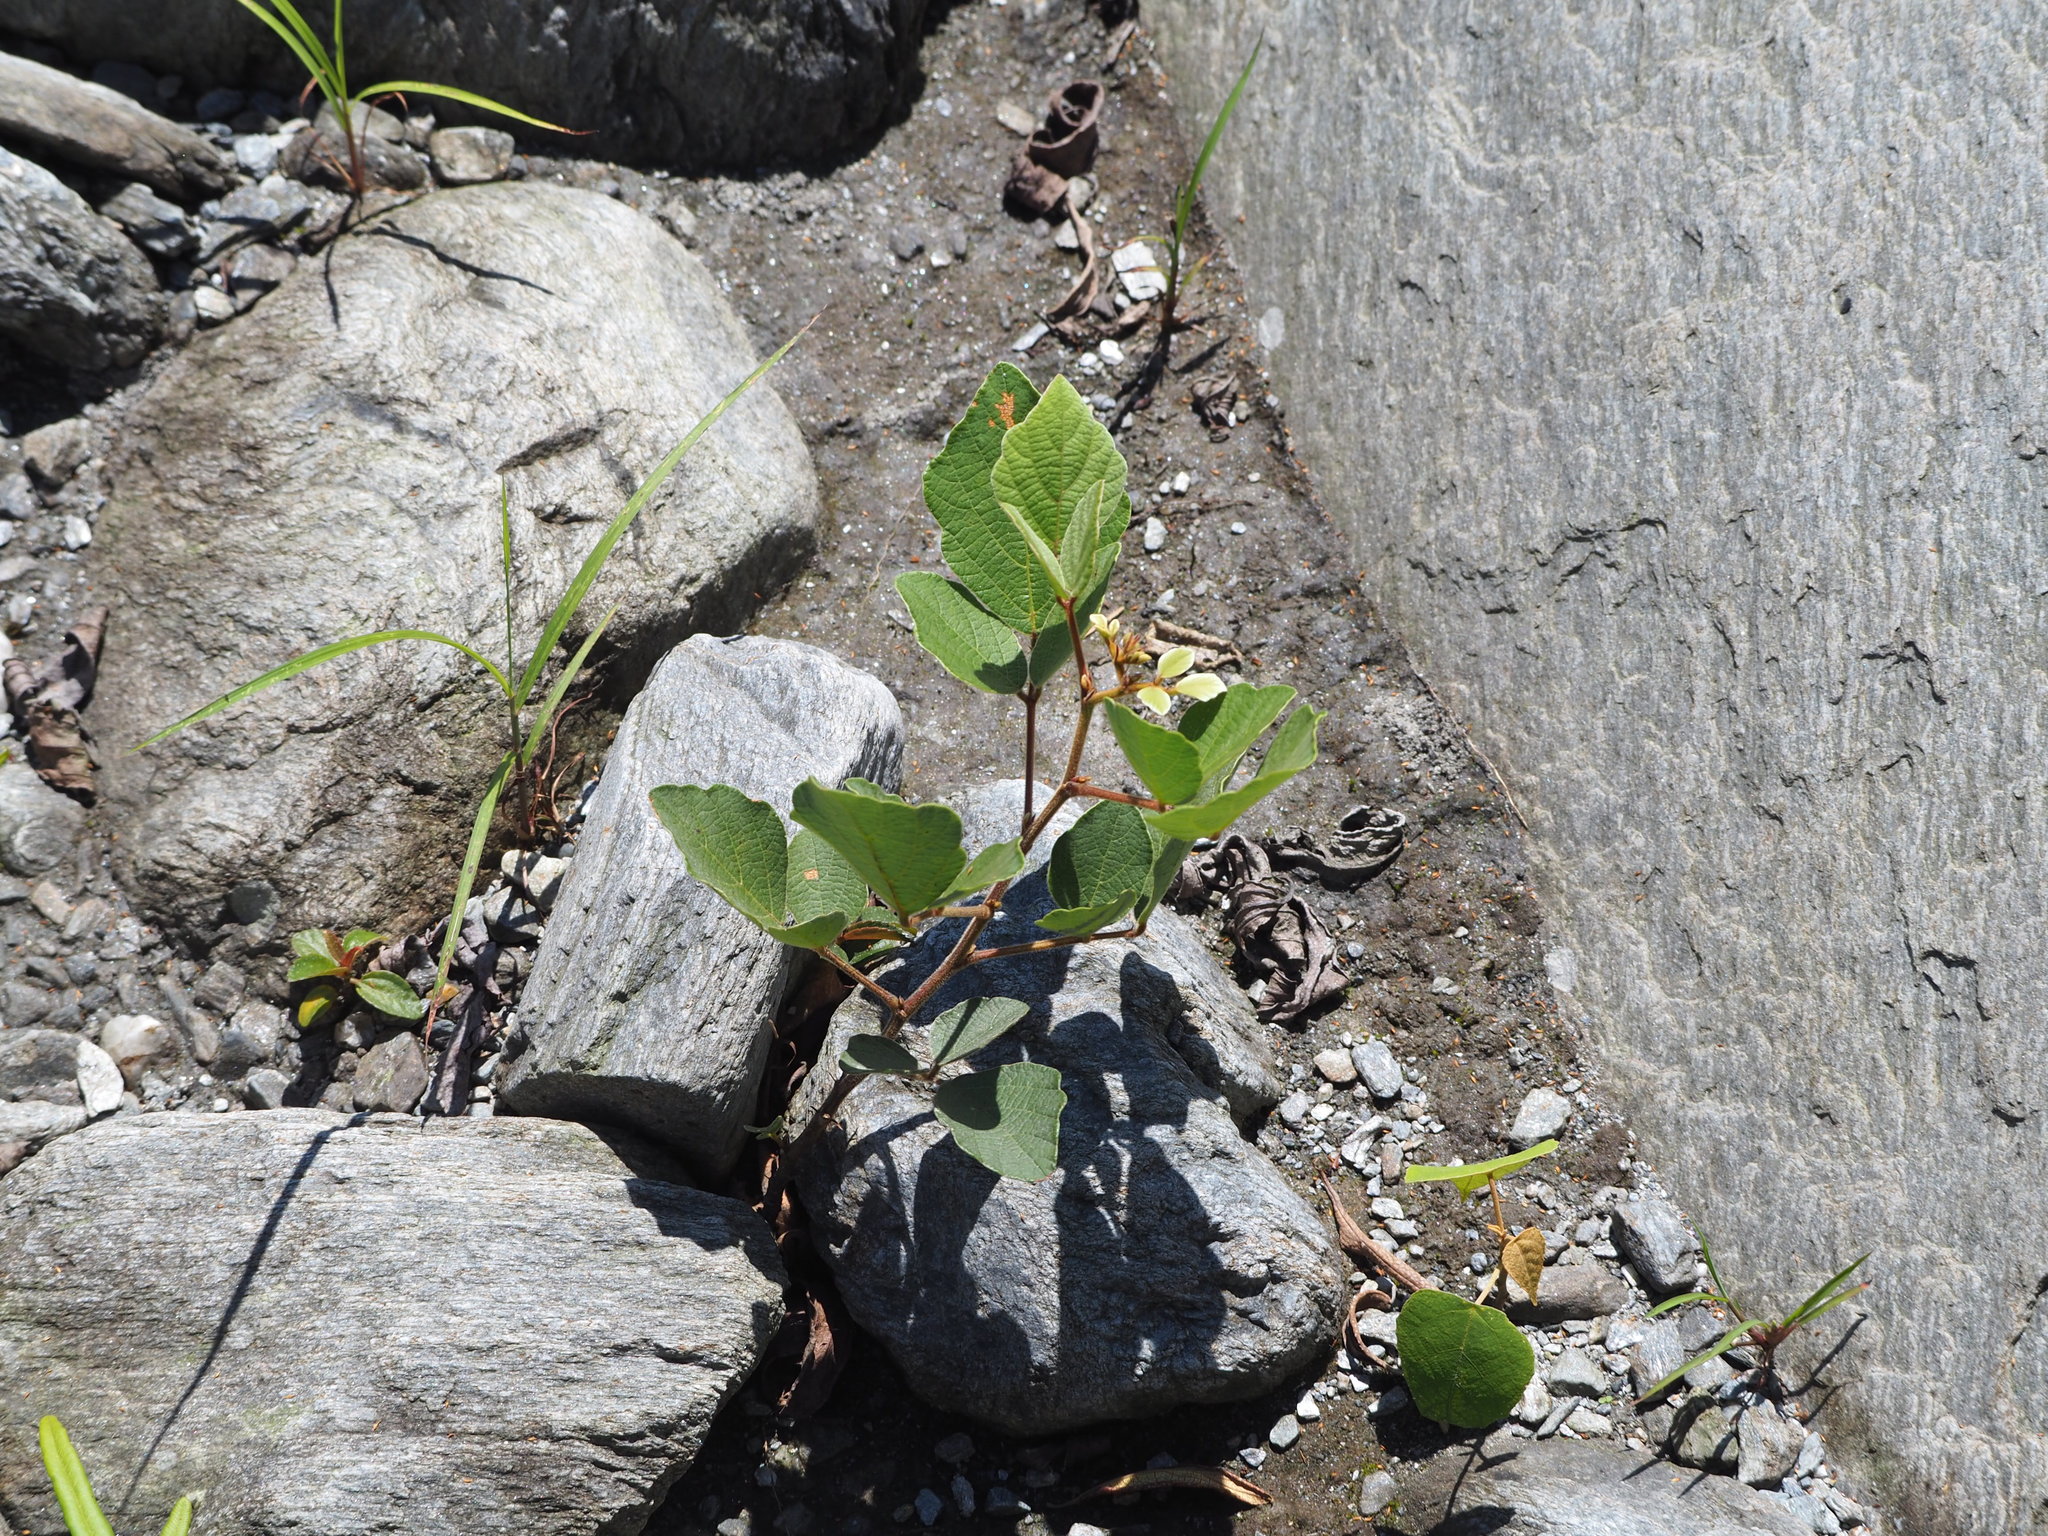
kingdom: Plantae
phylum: Tracheophyta
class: Magnoliopsida
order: Fabales
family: Fabaceae
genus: Puhuaea
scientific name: Puhuaea sequax
